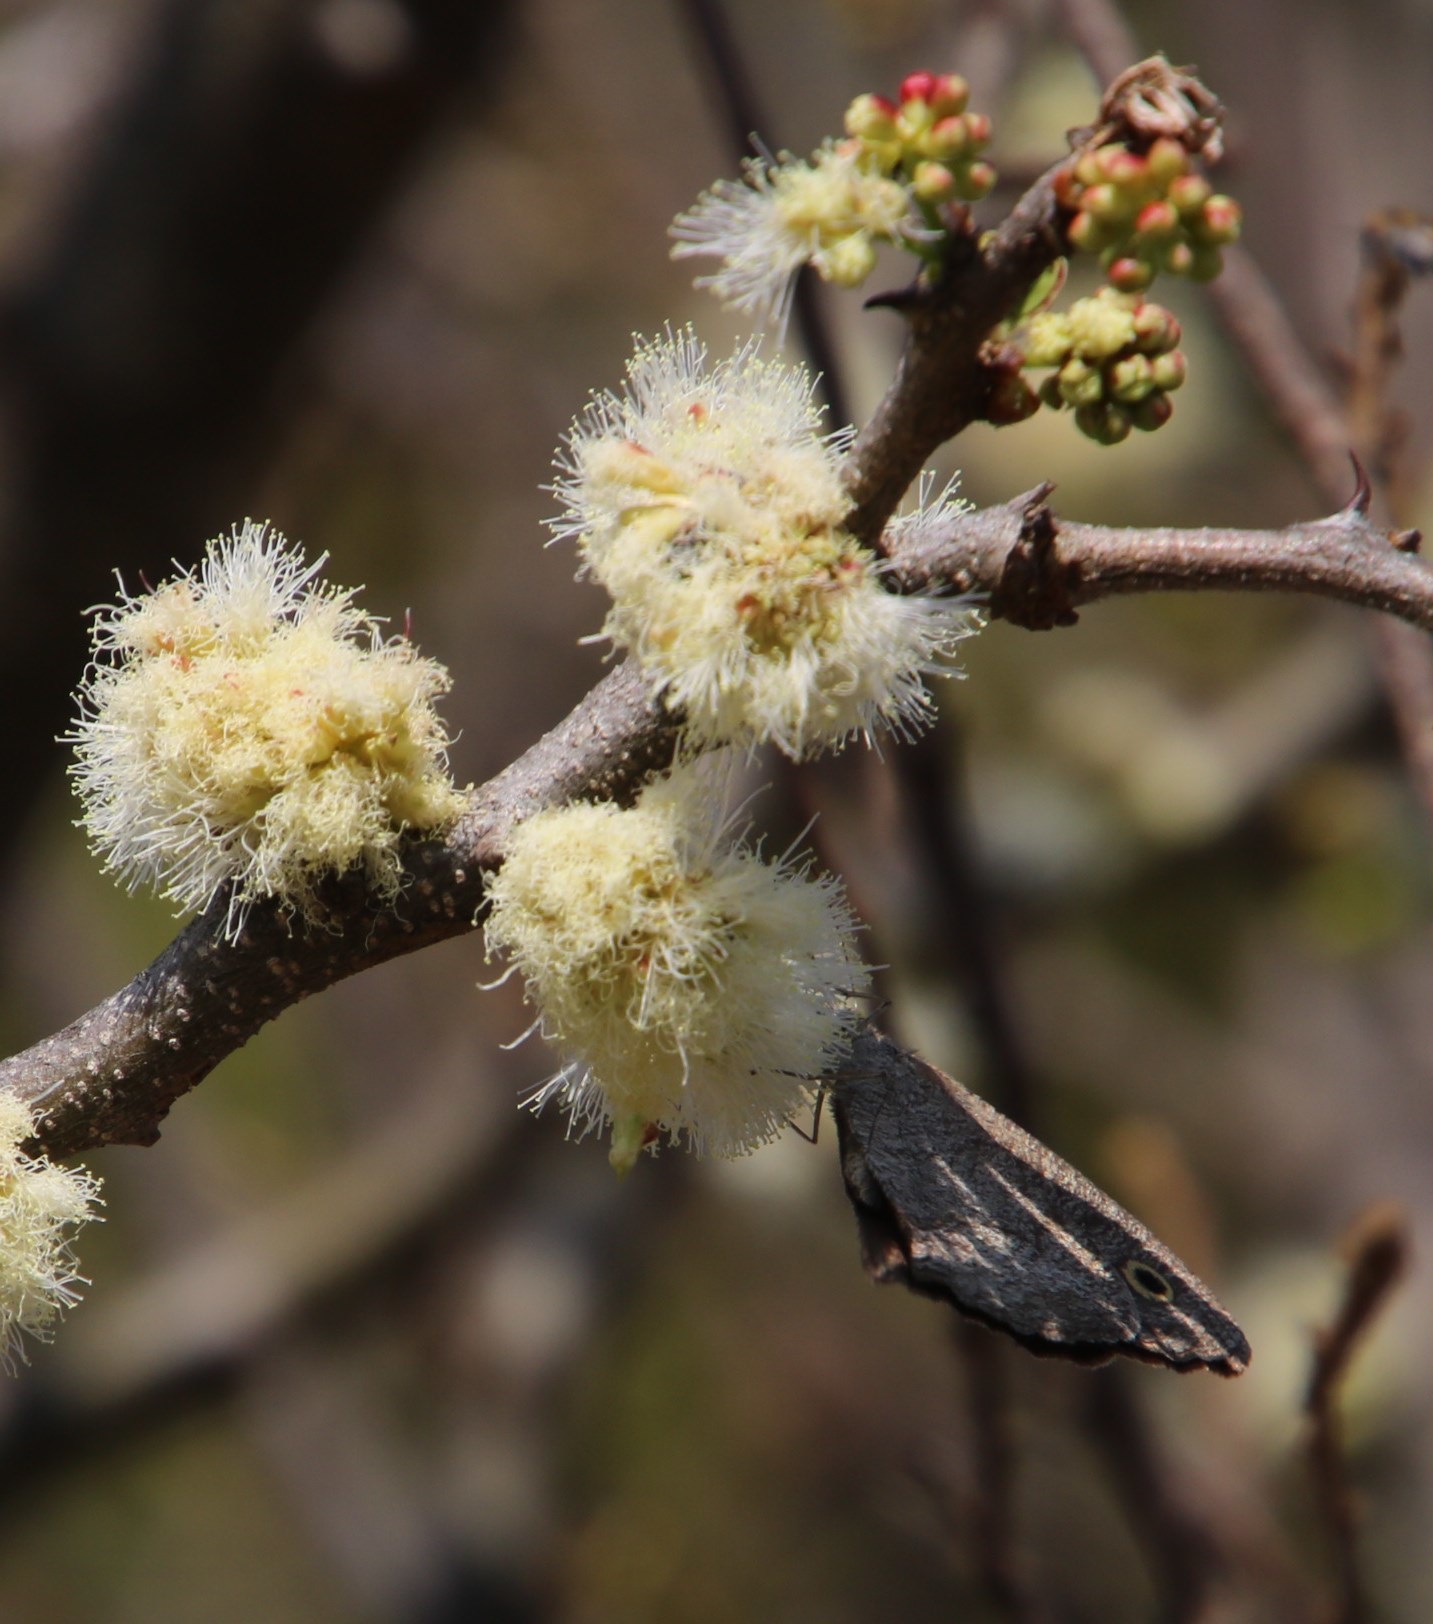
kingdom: Animalia
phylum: Arthropoda
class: Insecta
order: Lepidoptera
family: Nymphalidae
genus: Ypthima
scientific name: Ypthima
